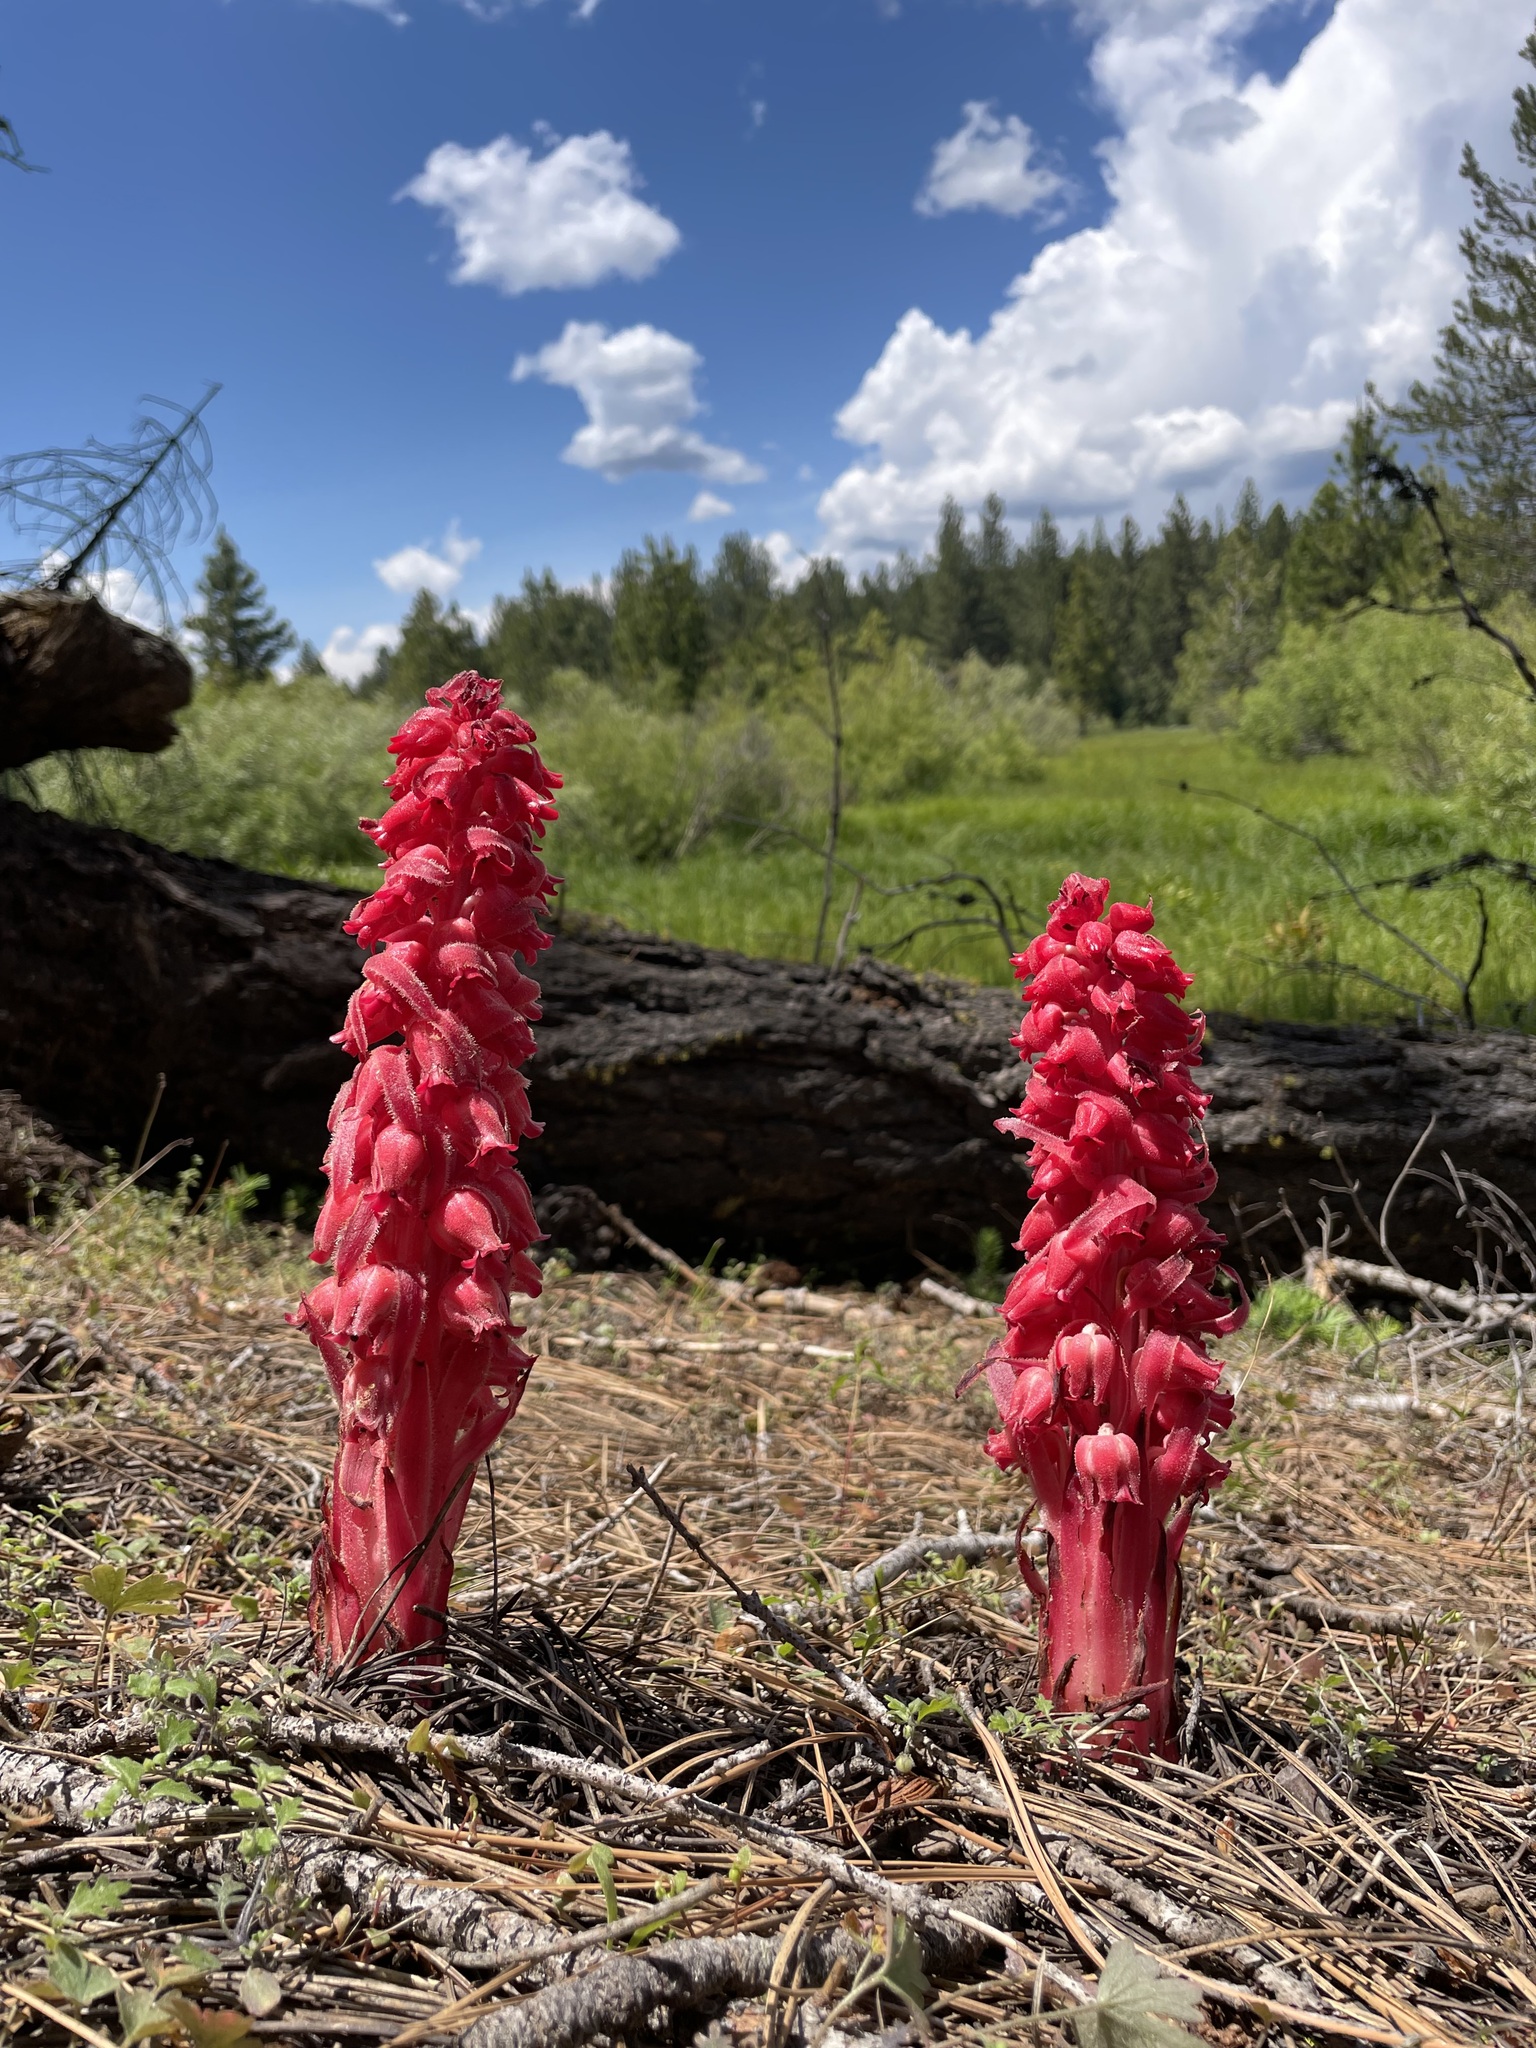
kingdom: Plantae
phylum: Tracheophyta
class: Magnoliopsida
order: Ericales
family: Ericaceae
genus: Sarcodes
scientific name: Sarcodes sanguinea
